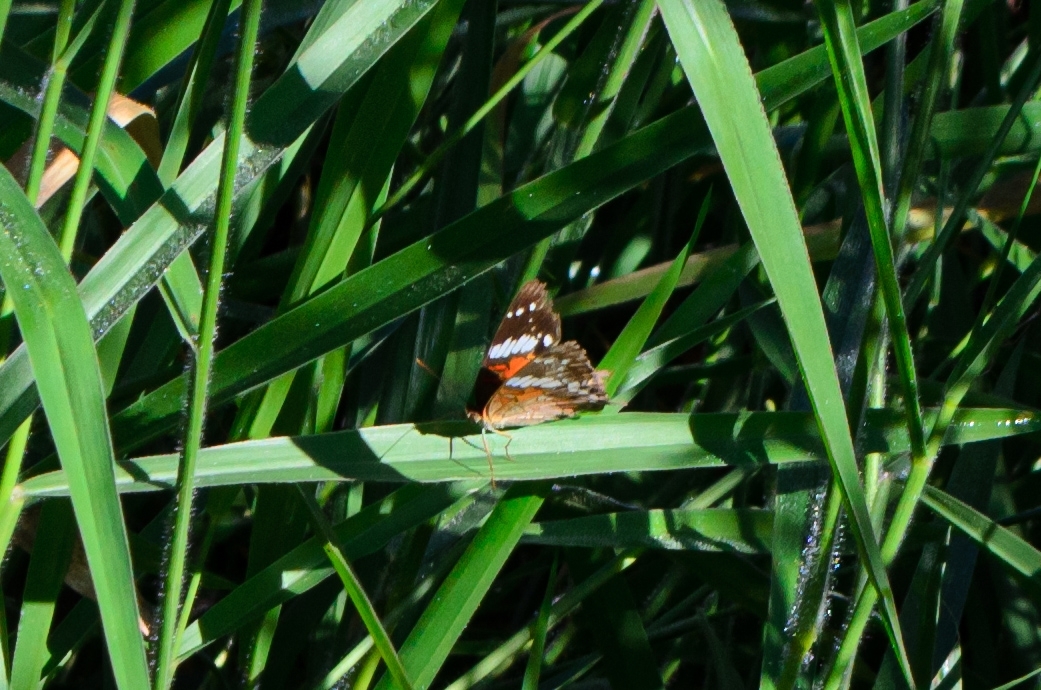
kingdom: Animalia
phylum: Arthropoda
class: Insecta
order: Lepidoptera
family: Nymphalidae
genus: Anartia
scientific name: Anartia amathea
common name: Red peacock
